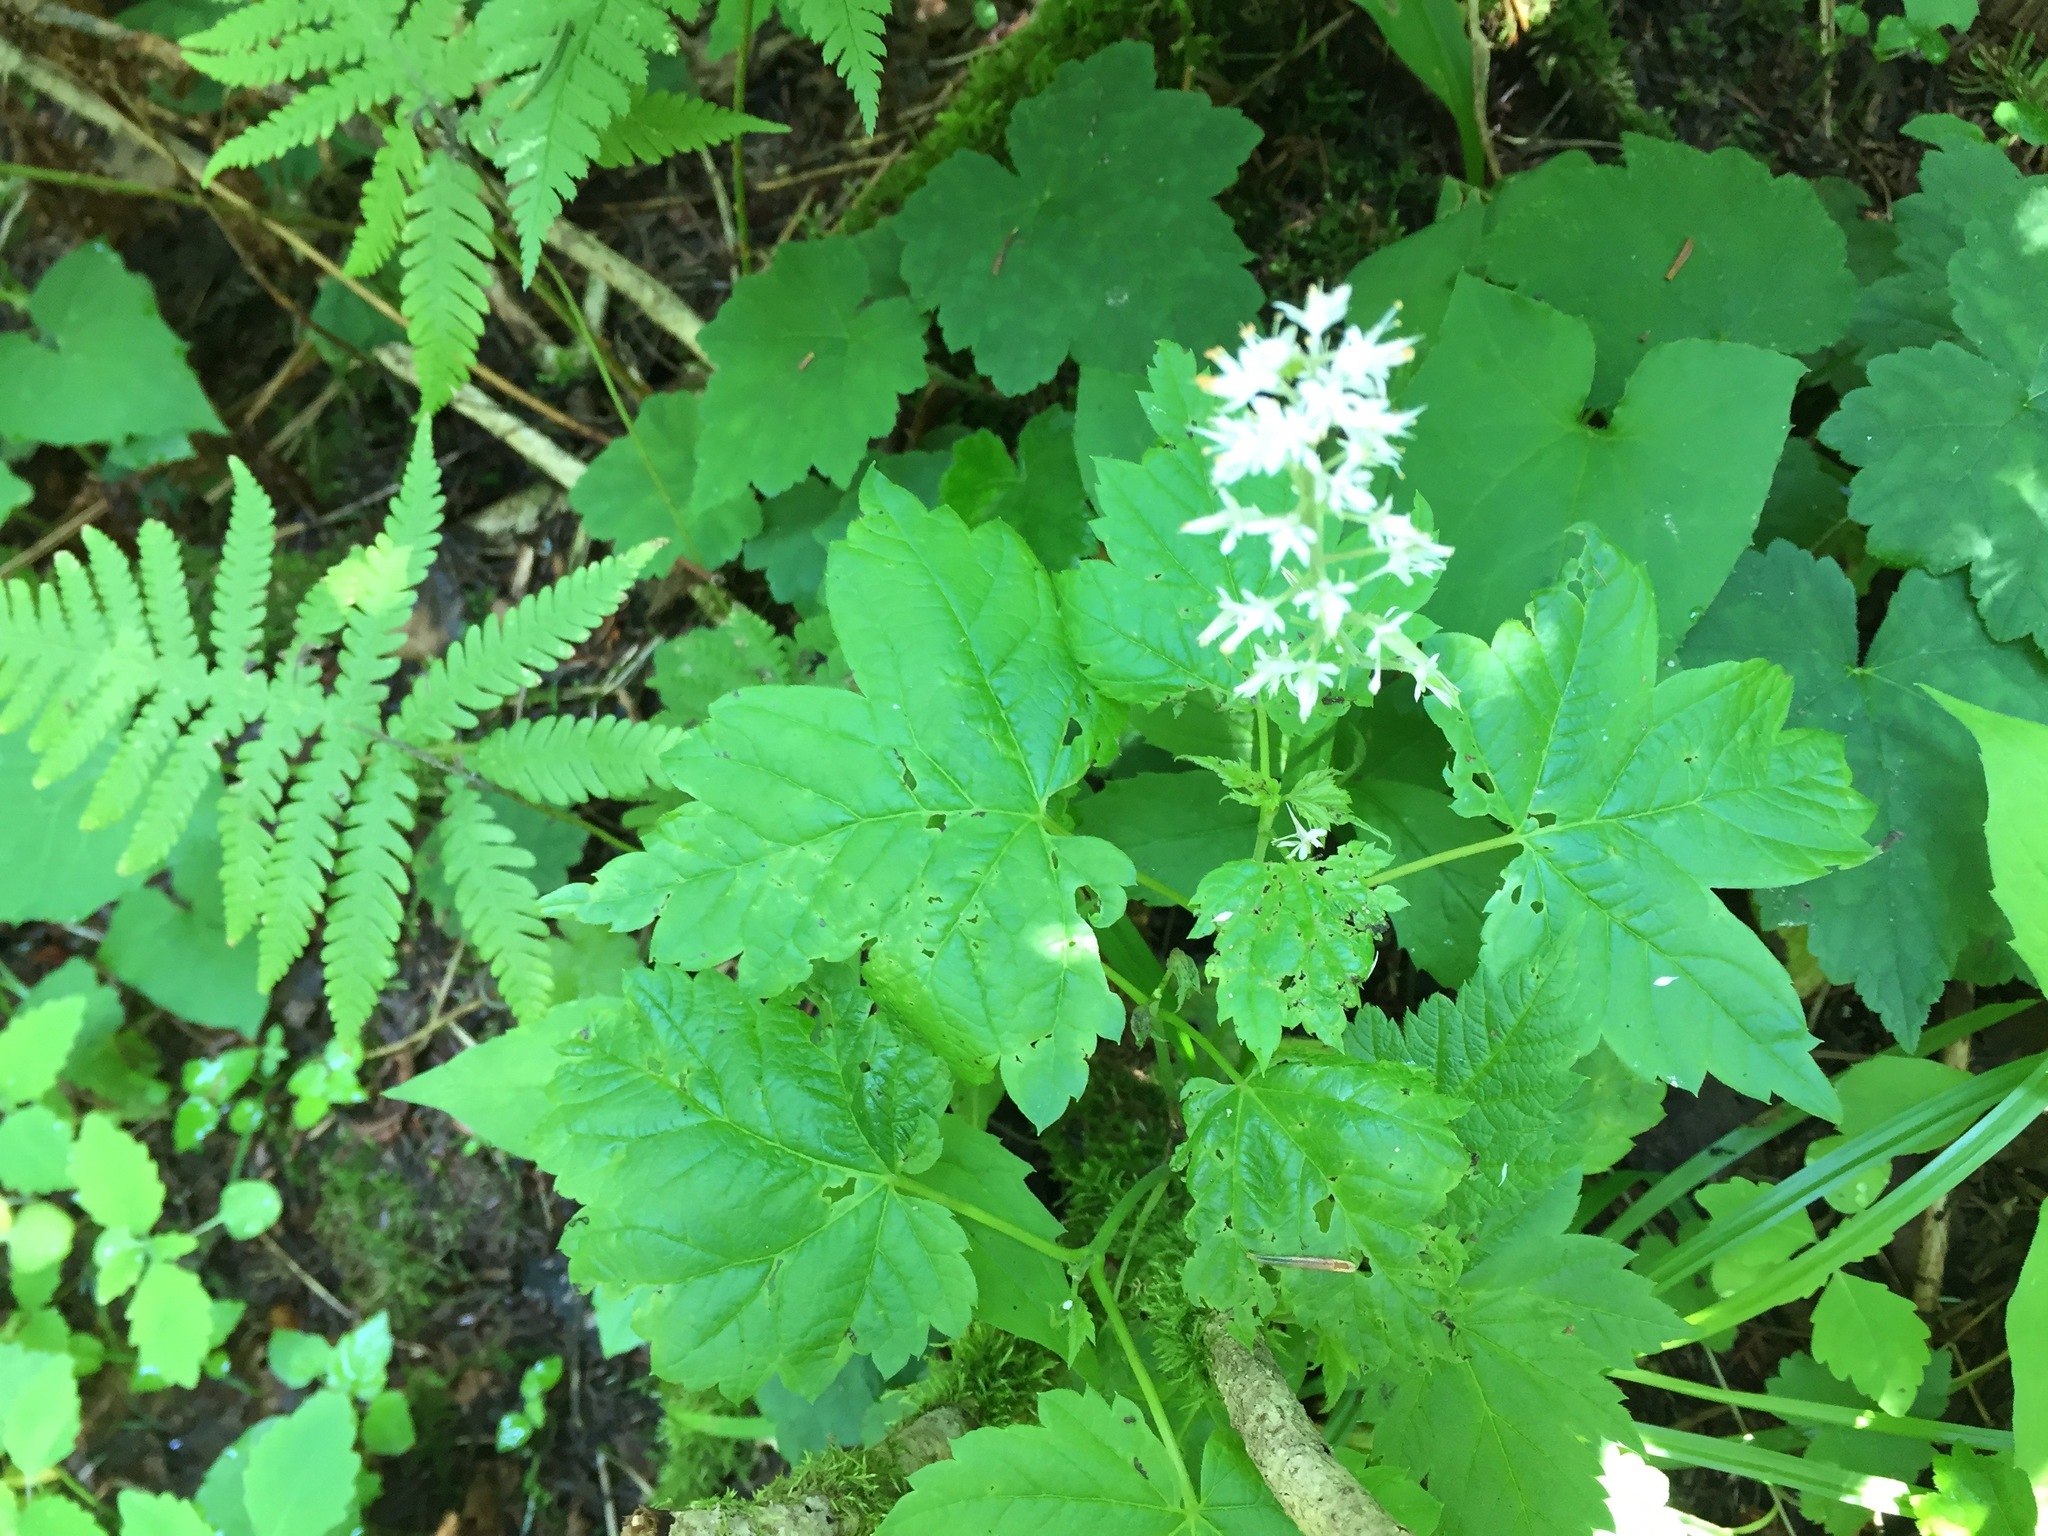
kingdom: Plantae
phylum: Tracheophyta
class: Magnoliopsida
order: Saxifragales
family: Saxifragaceae
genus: Tiarella
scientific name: Tiarella stolonifera
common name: Stoloniferous foamflower
